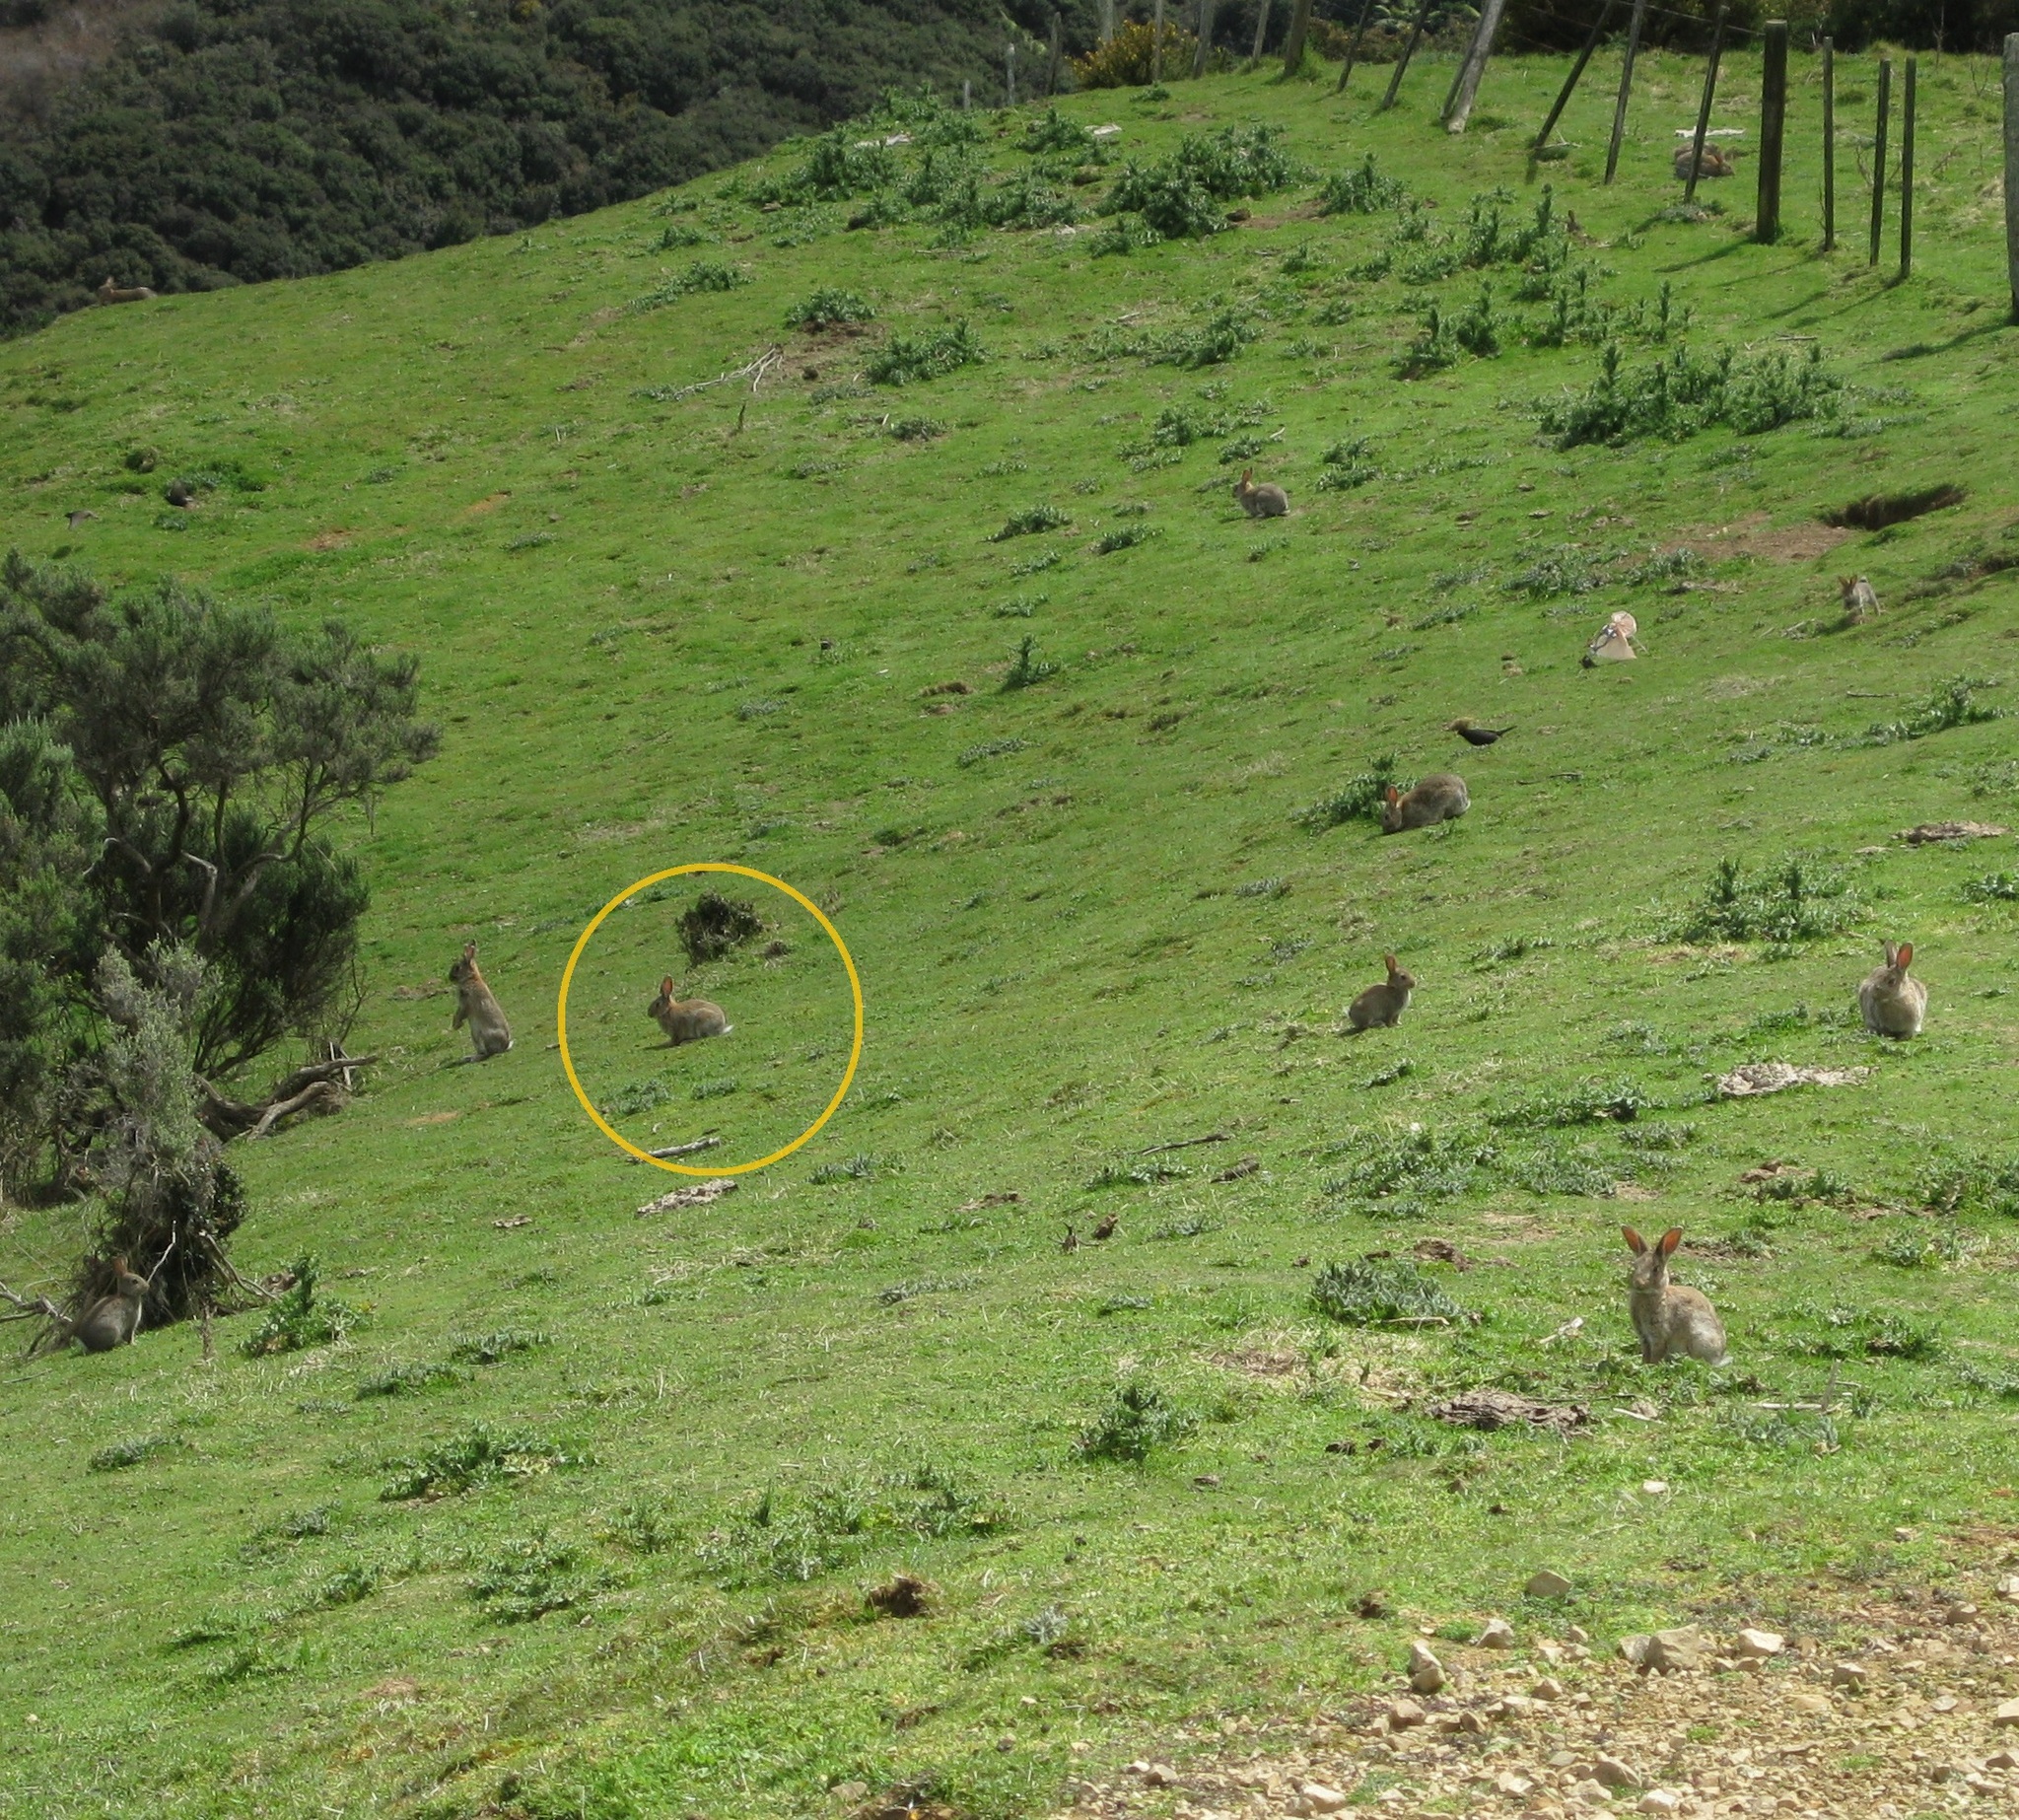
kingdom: Animalia
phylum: Chordata
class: Mammalia
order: Lagomorpha
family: Leporidae
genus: Oryctolagus
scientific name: Oryctolagus cuniculus
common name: European rabbit
